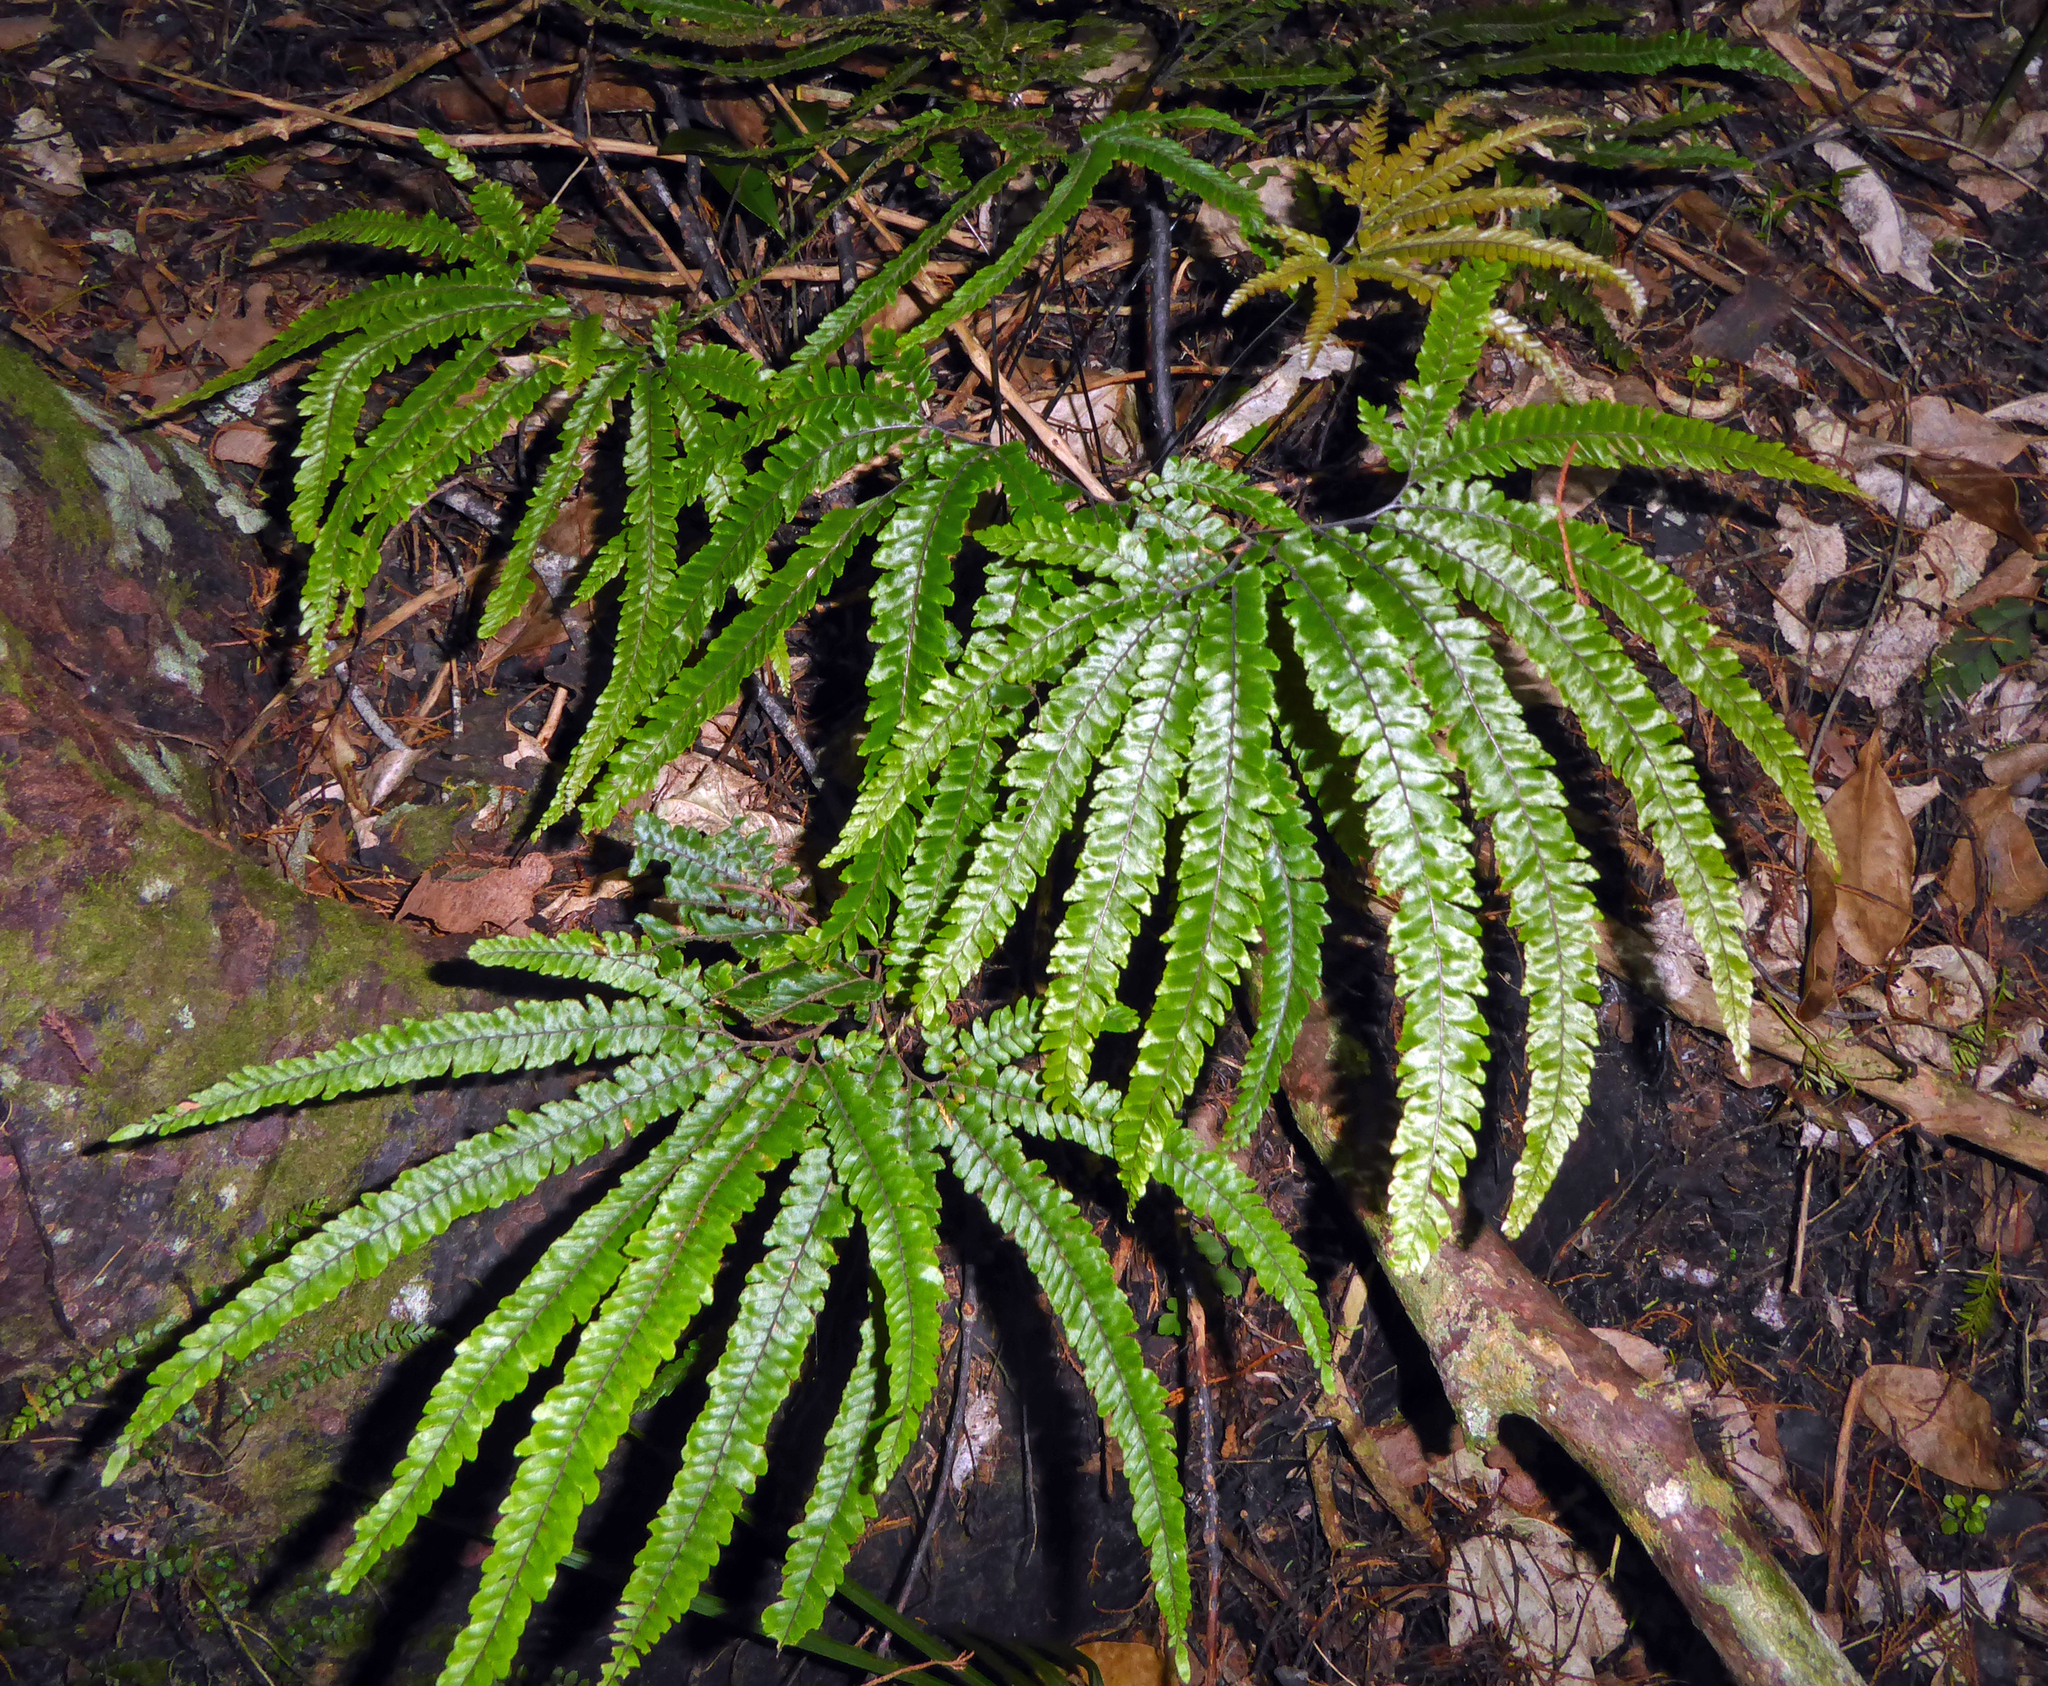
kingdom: Plantae
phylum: Tracheophyta
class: Polypodiopsida
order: Polypodiales
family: Pteridaceae
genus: Adiantum
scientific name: Adiantum hispidulum
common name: Rough maidenhair
